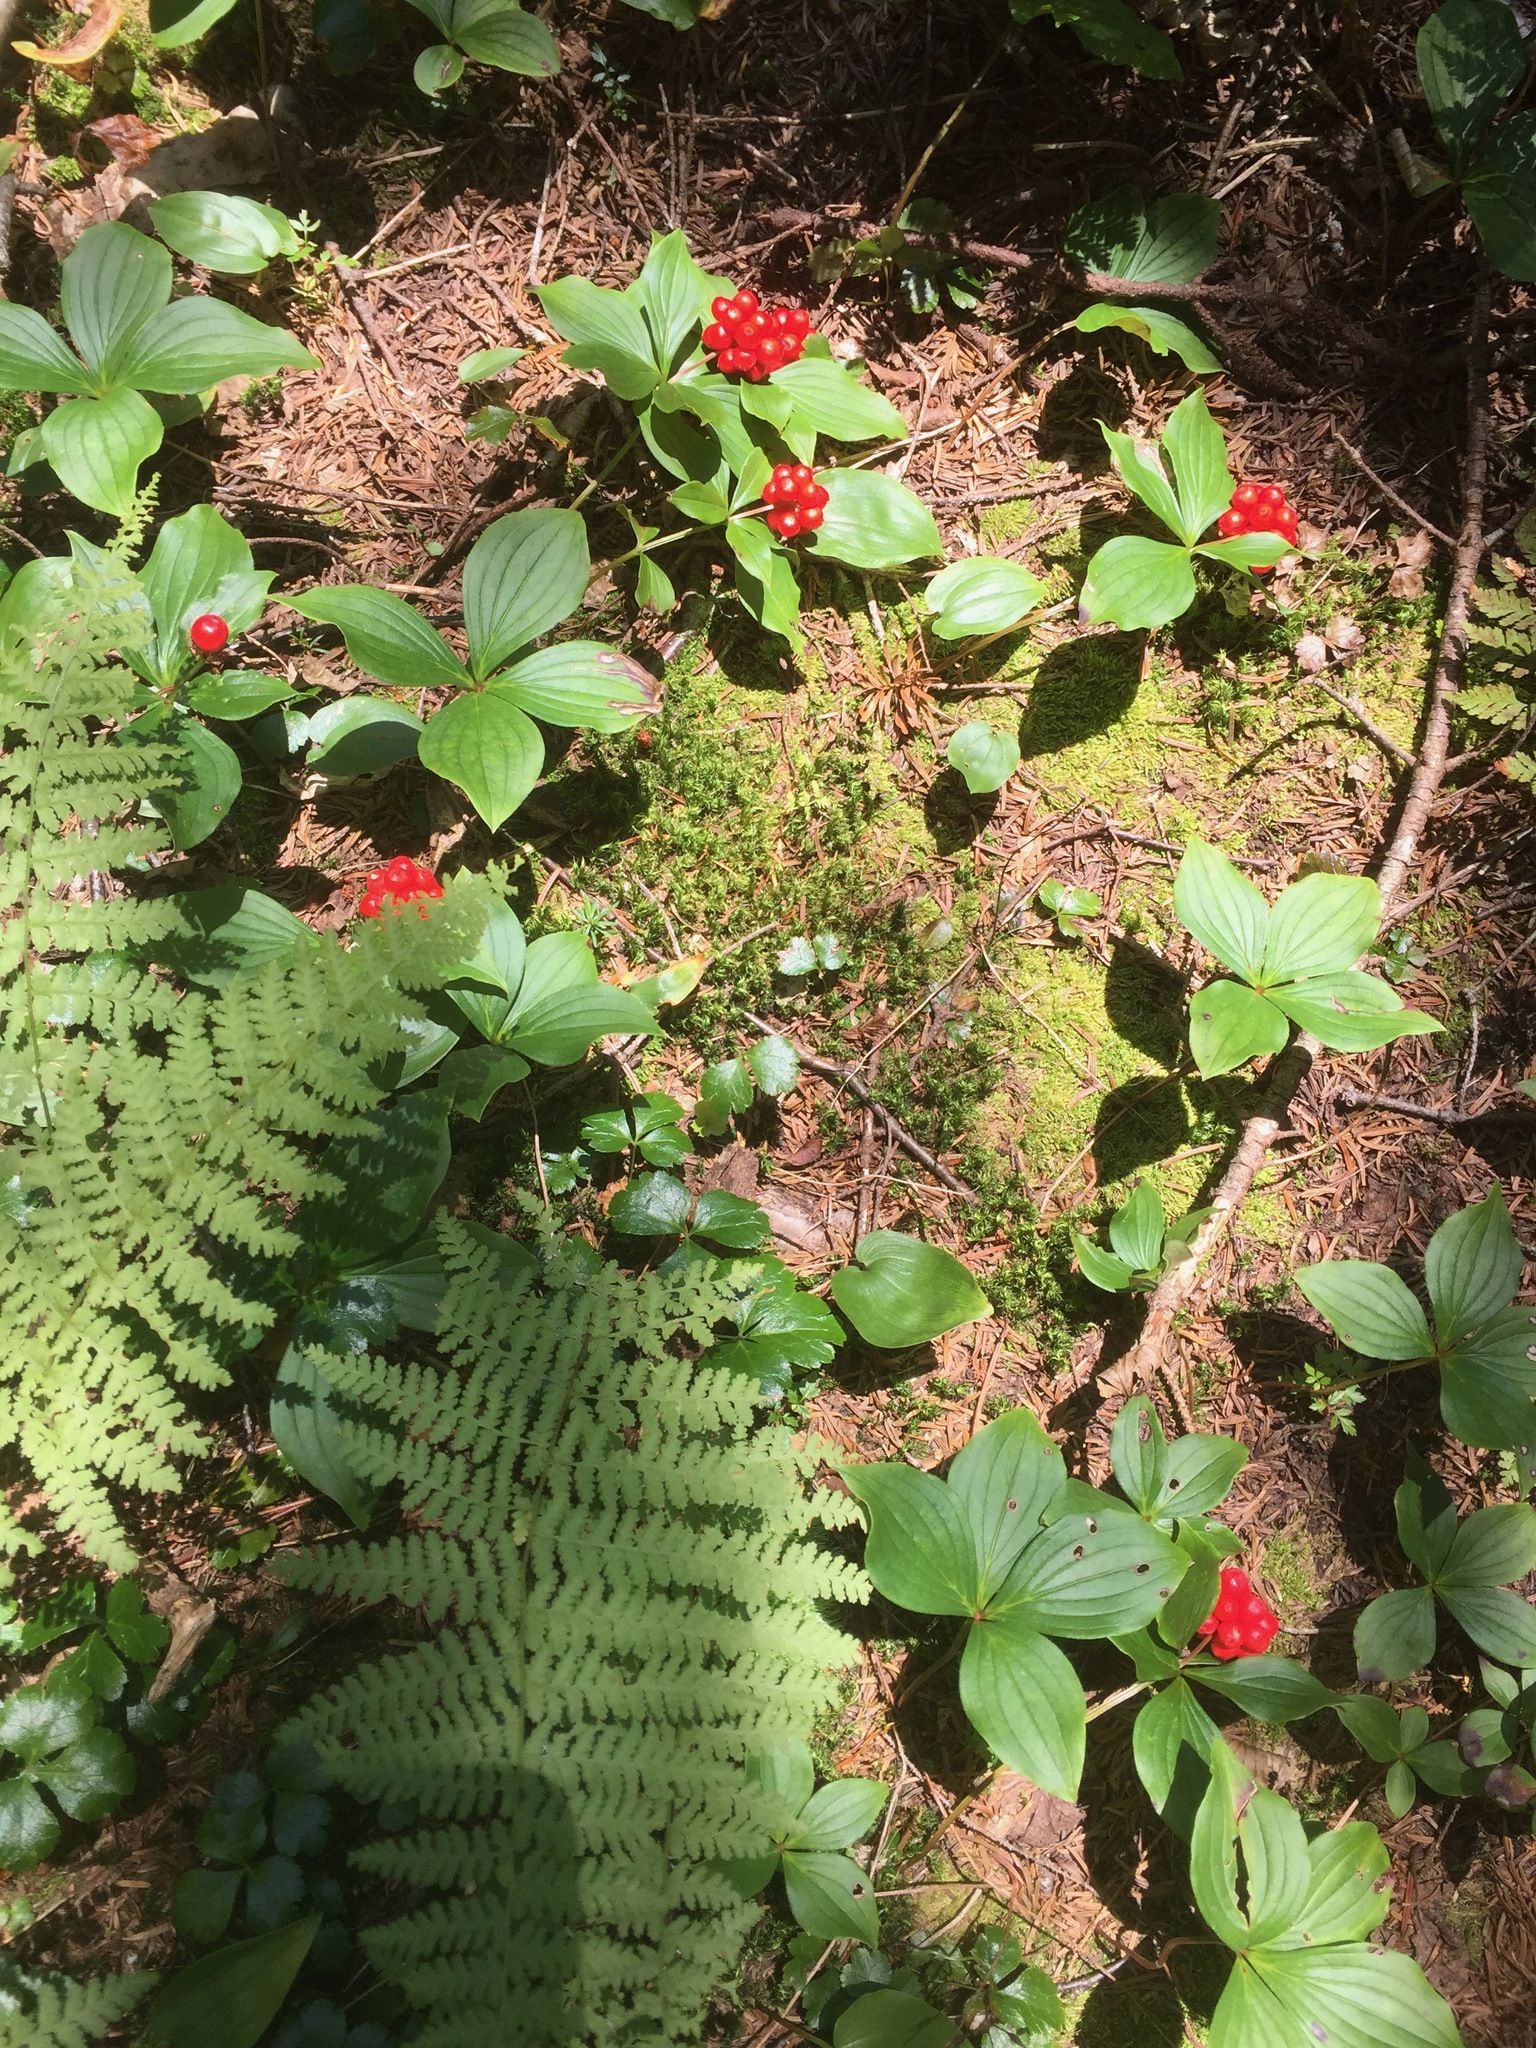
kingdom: Plantae
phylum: Tracheophyta
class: Magnoliopsida
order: Cornales
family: Cornaceae
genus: Cornus
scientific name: Cornus canadensis
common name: Creeping dogwood
